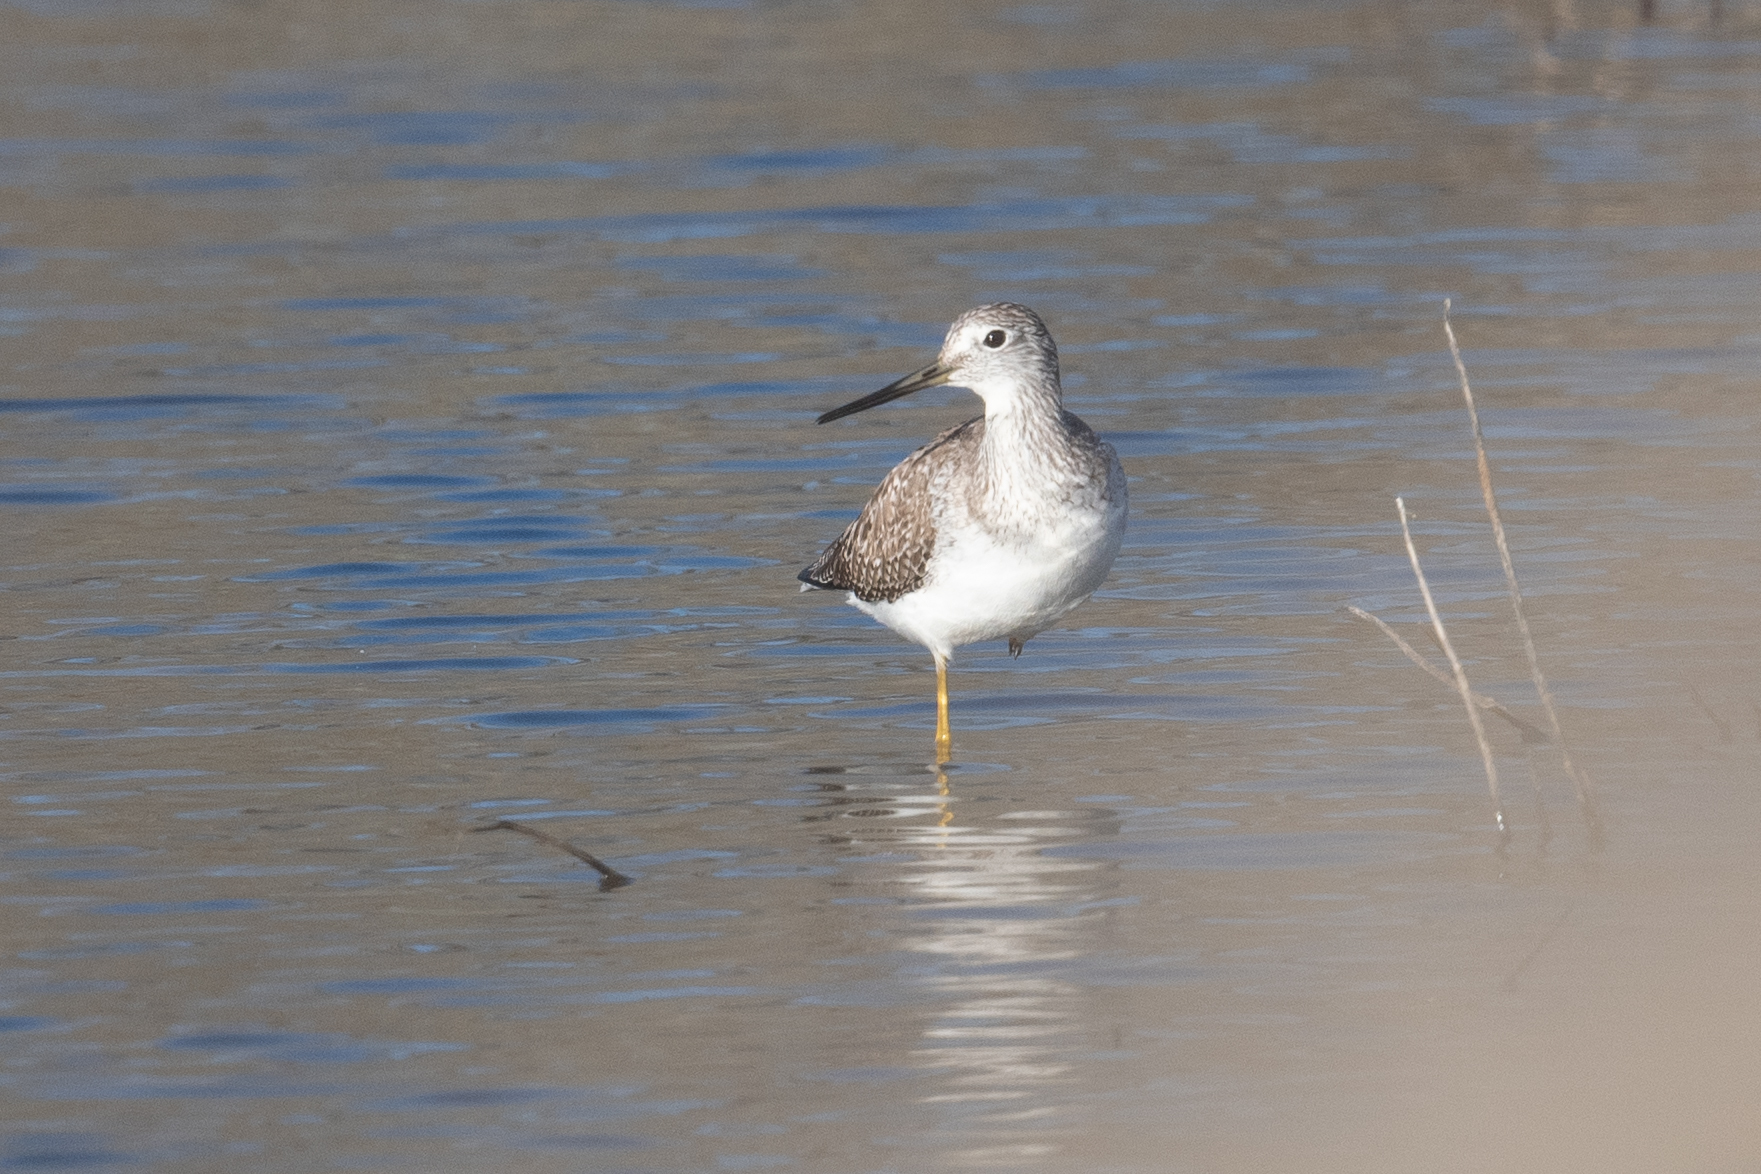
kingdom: Animalia
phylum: Chordata
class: Aves
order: Charadriiformes
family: Scolopacidae
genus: Tringa
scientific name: Tringa melanoleuca
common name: Greater yellowlegs
